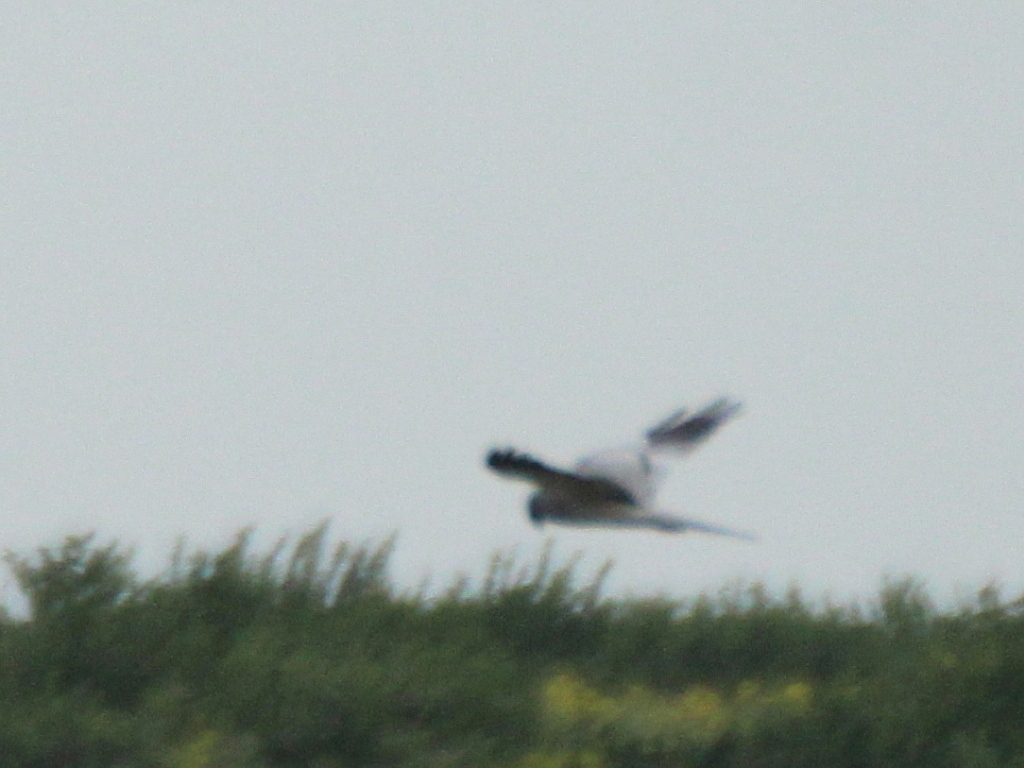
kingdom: Animalia
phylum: Chordata
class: Aves
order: Accipitriformes
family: Accipitridae
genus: Circus
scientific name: Circus pygargus
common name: Montagu's harrier
